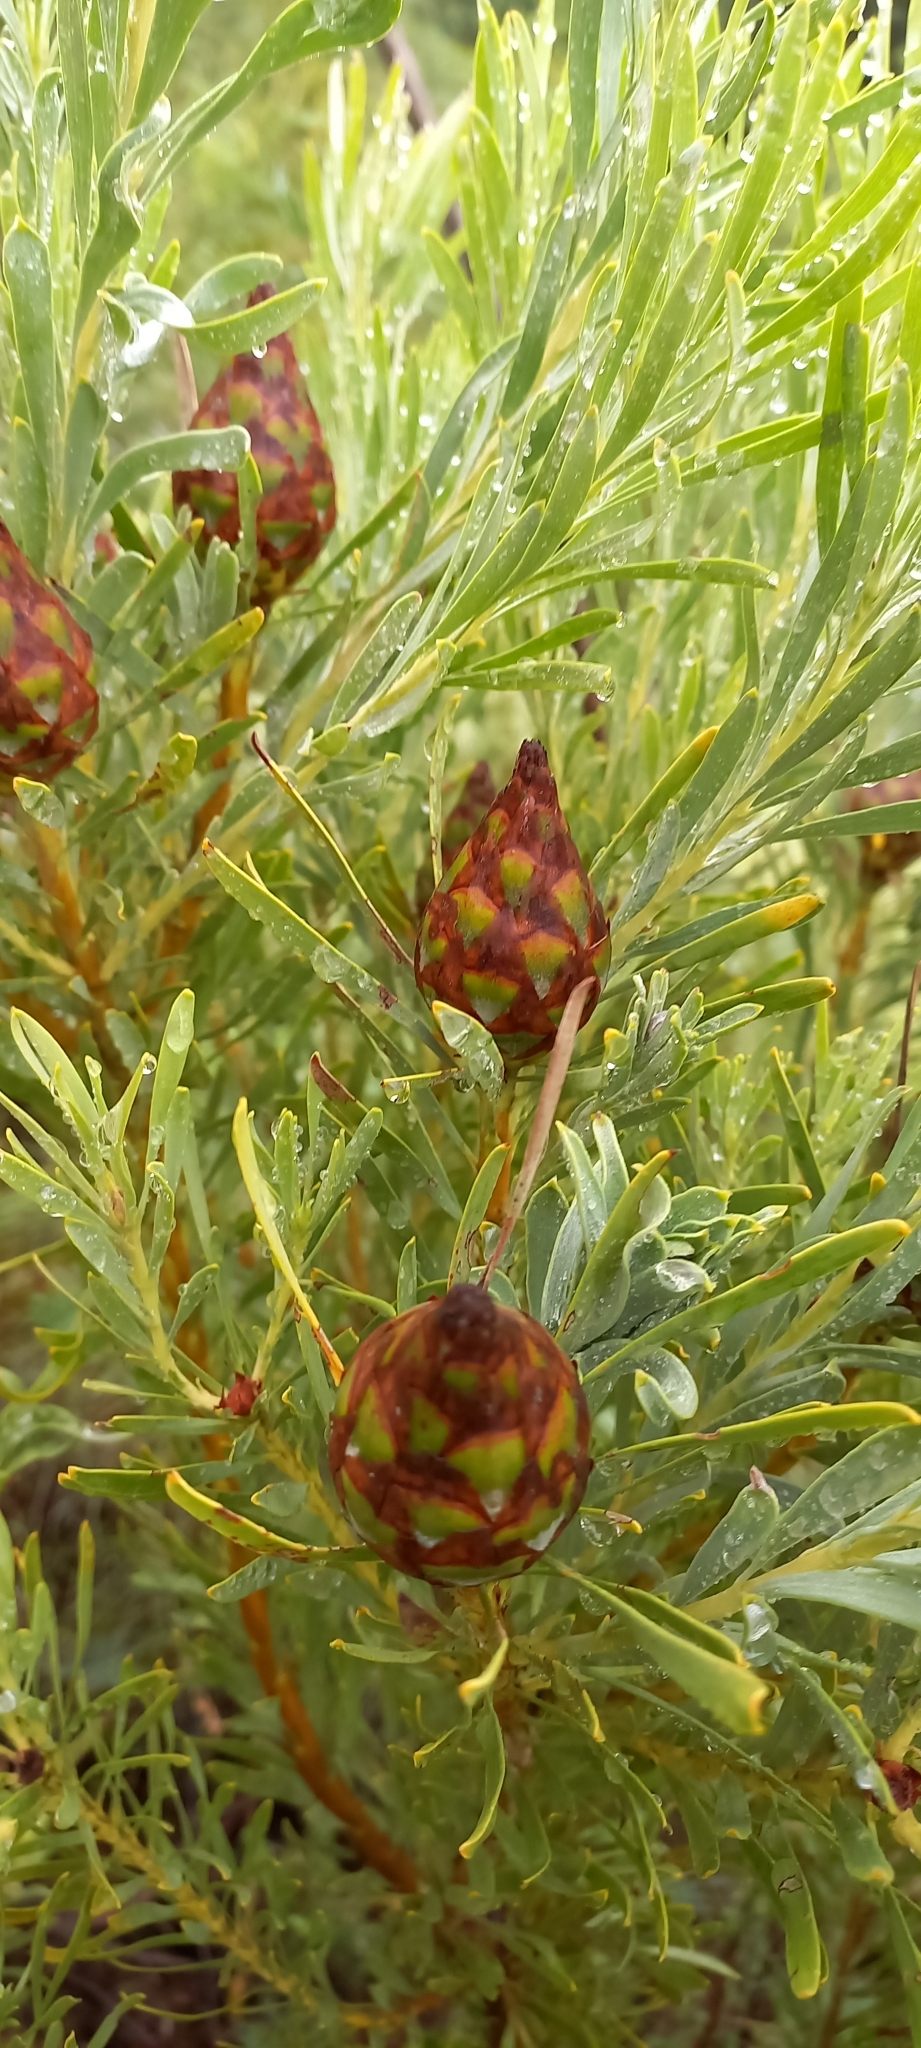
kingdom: Plantae
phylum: Tracheophyta
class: Magnoliopsida
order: Proteales
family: Proteaceae
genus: Leucadendron
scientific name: Leucadendron rubrum
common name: Spinning top
